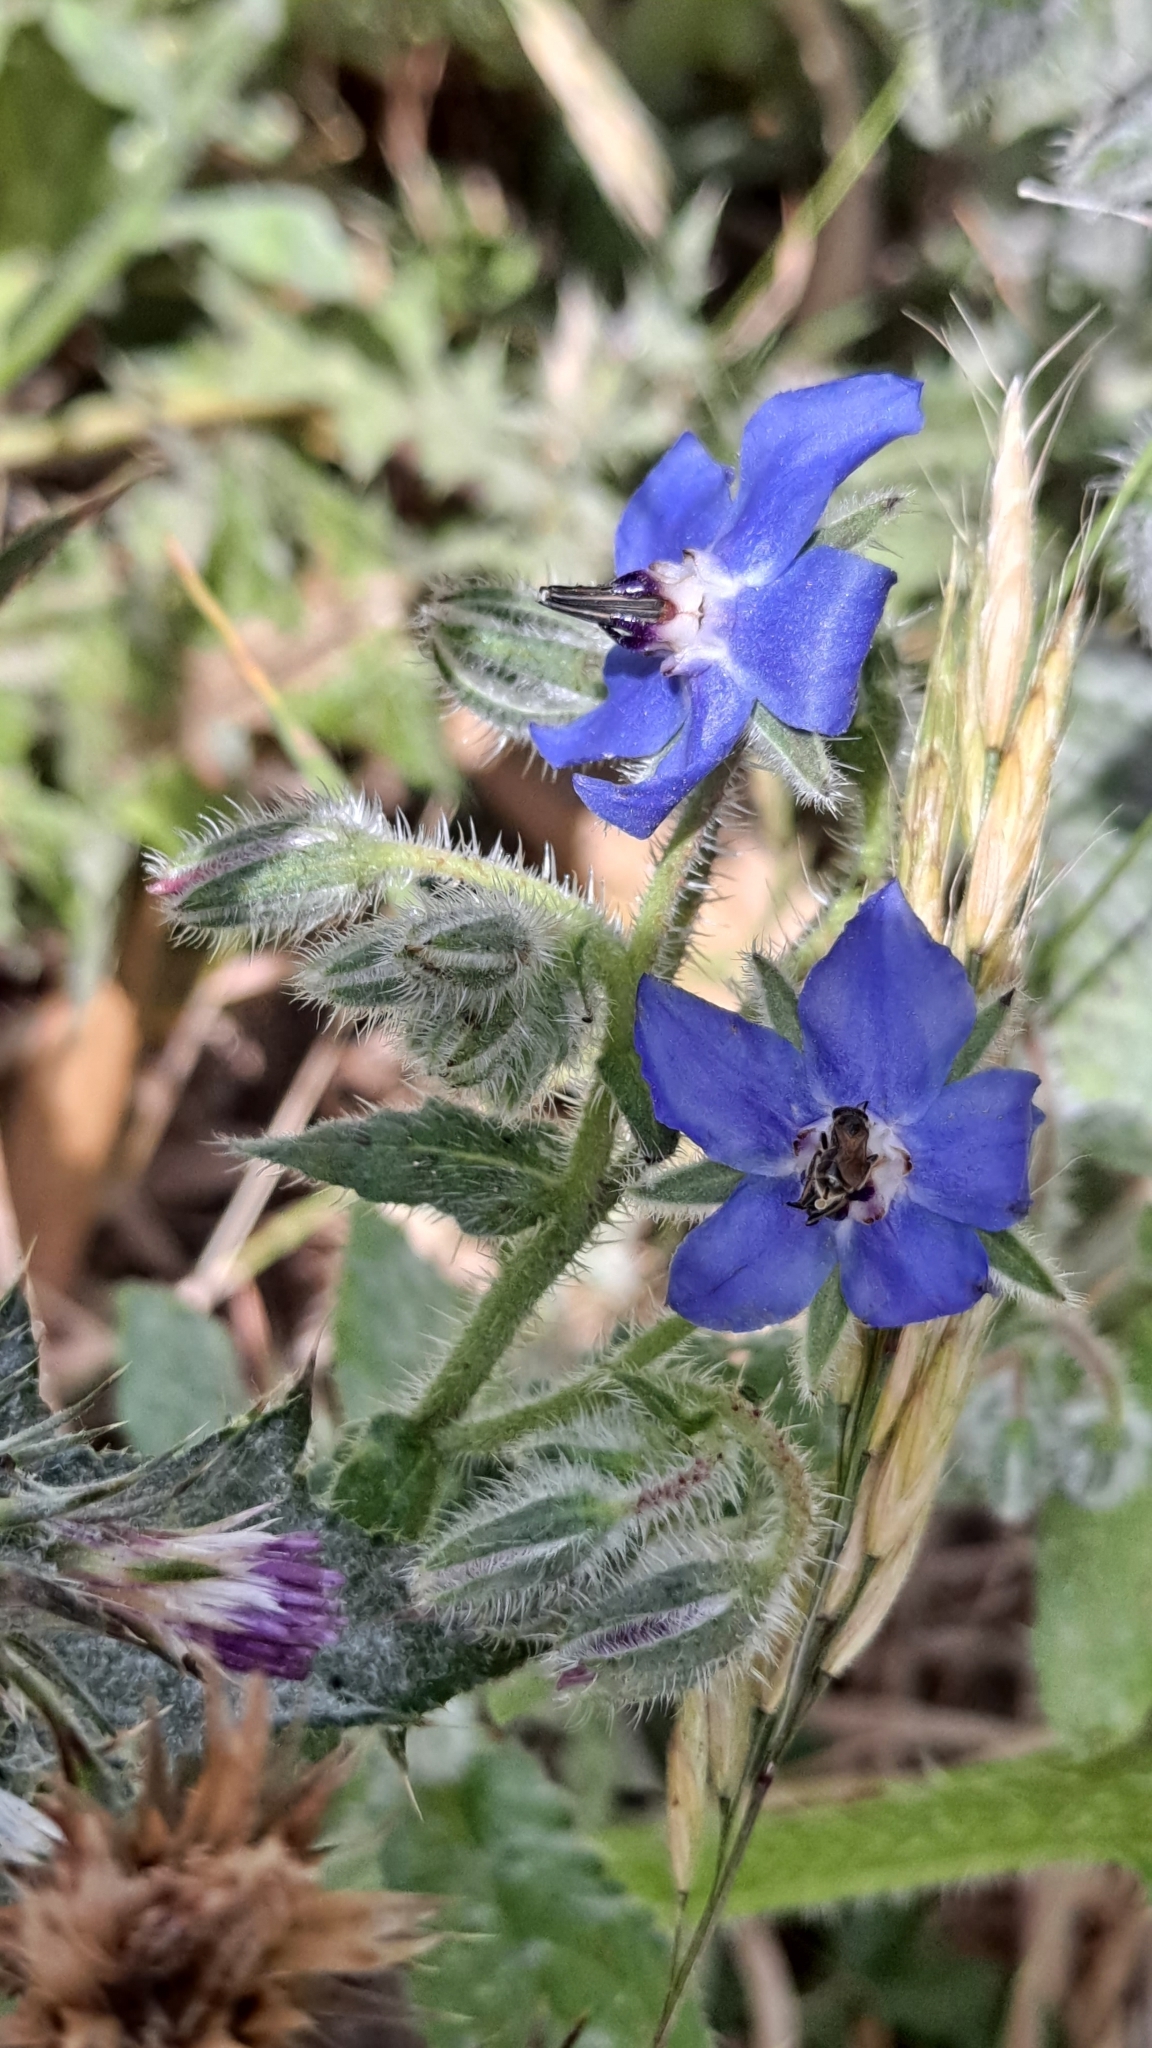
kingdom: Plantae
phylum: Tracheophyta
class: Magnoliopsida
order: Boraginales
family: Boraginaceae
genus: Borago
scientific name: Borago officinalis
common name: Borage
